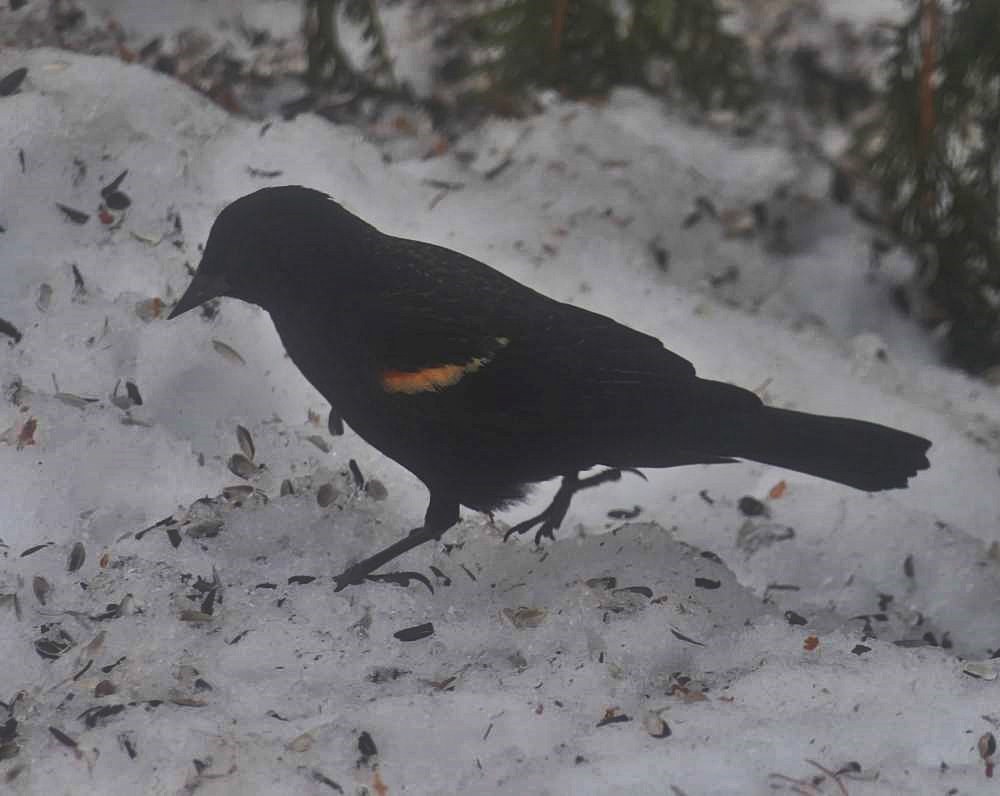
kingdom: Animalia
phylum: Chordata
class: Aves
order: Passeriformes
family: Icteridae
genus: Agelaius
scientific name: Agelaius phoeniceus
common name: Red-winged blackbird
